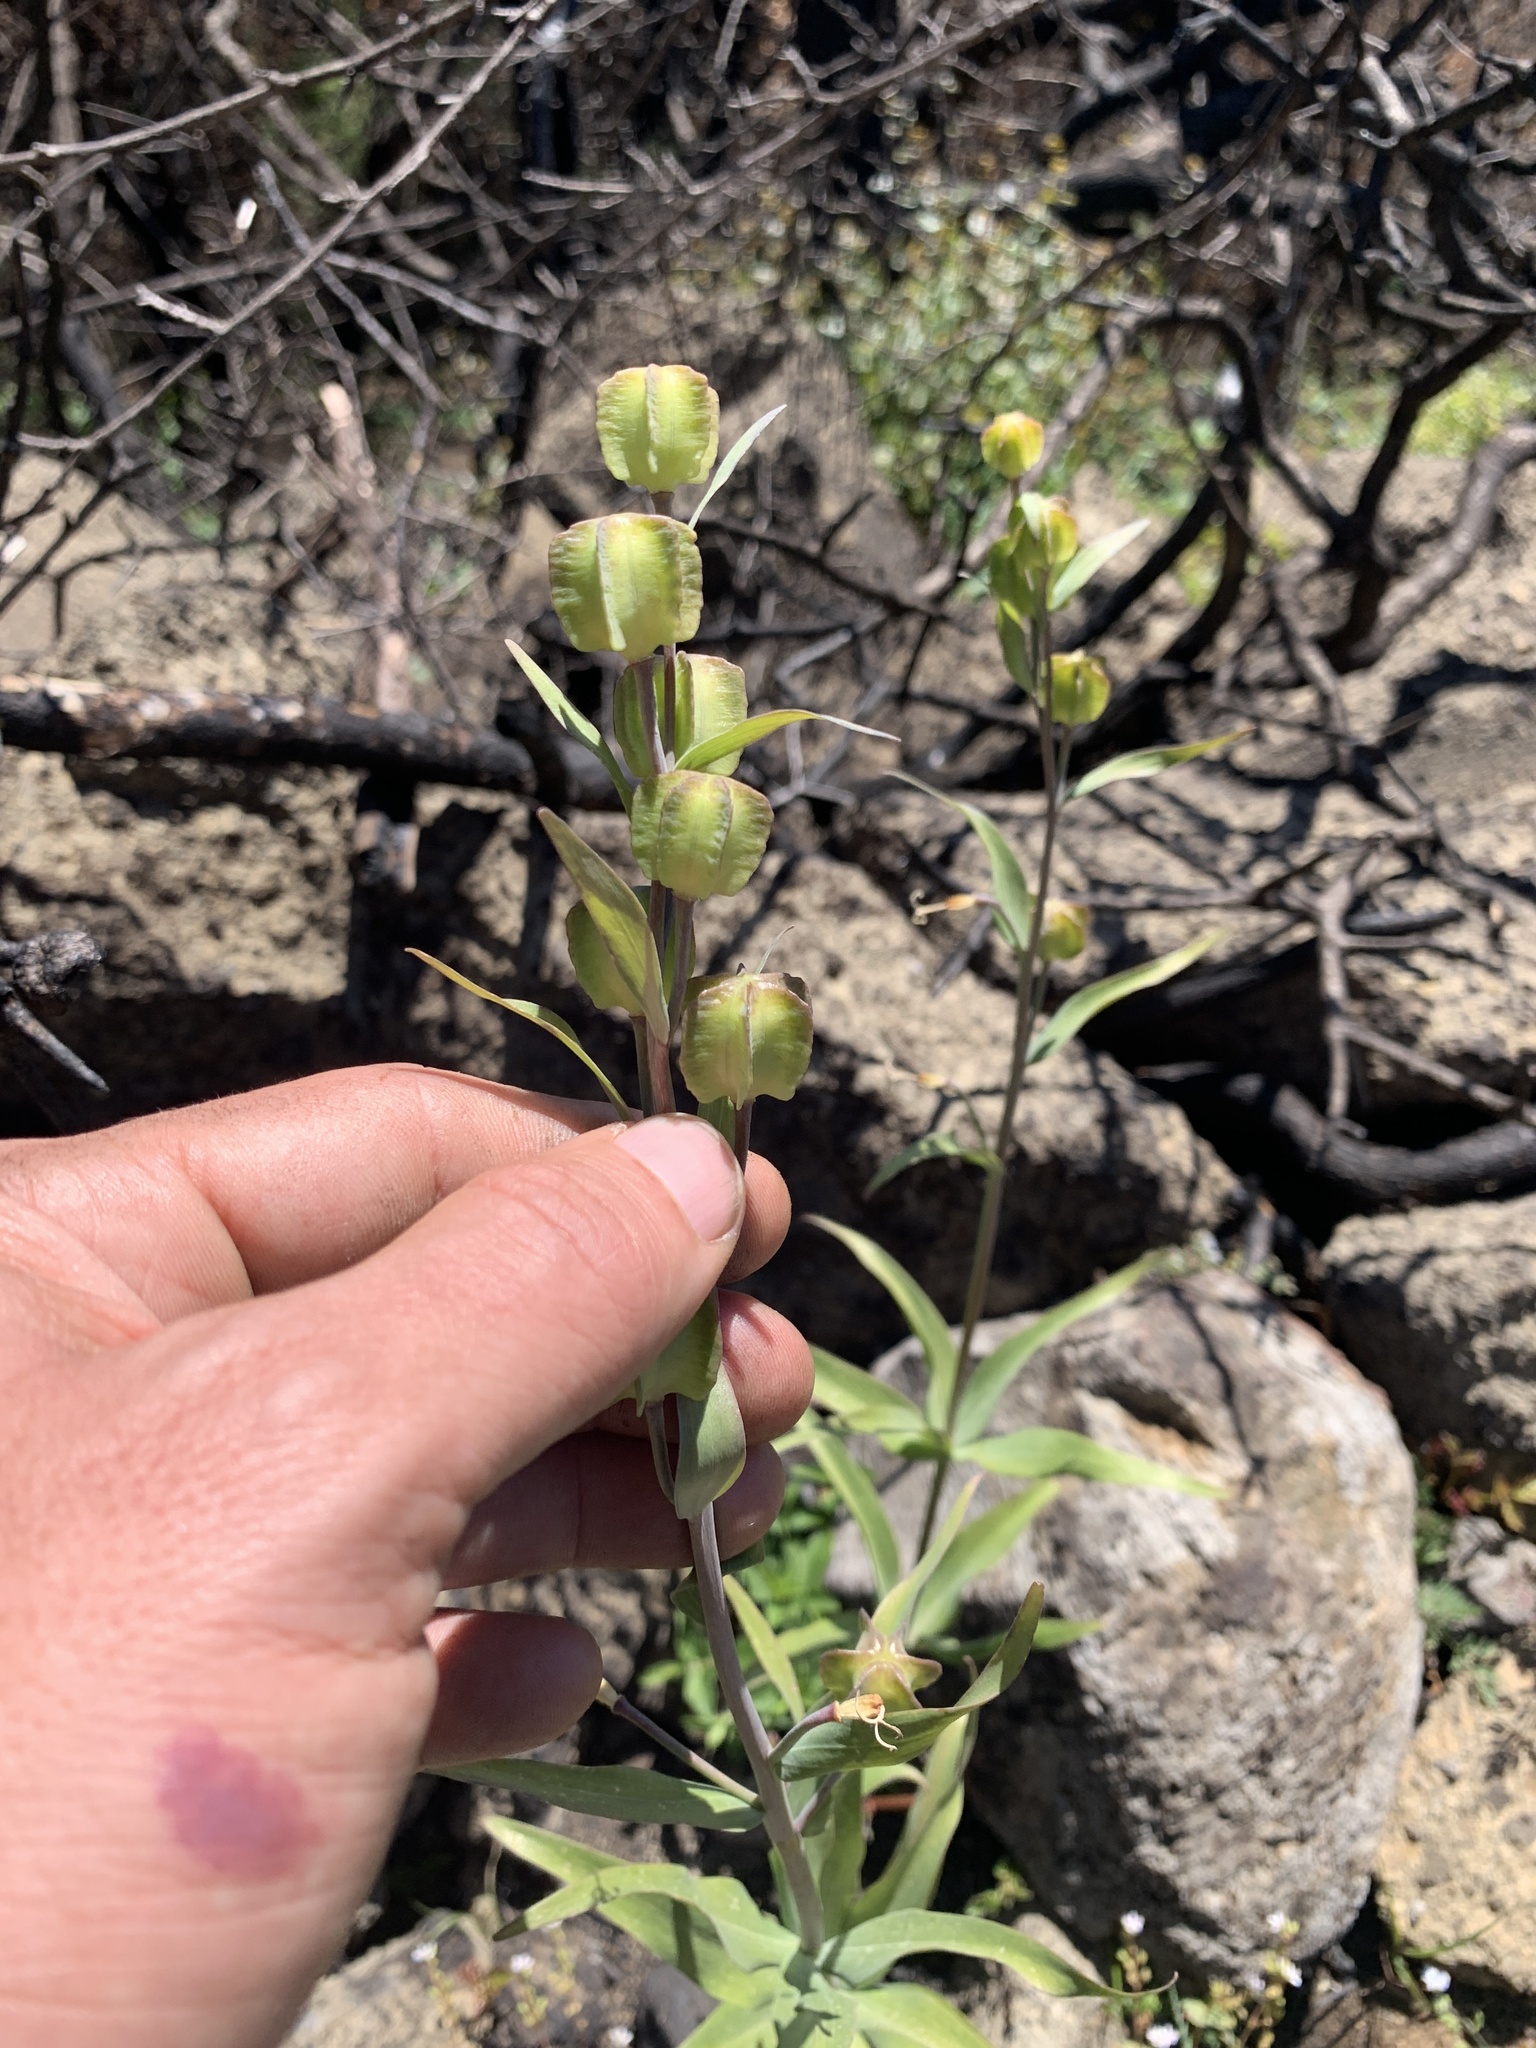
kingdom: Plantae
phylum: Tracheophyta
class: Liliopsida
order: Liliales
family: Liliaceae
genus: Fritillaria
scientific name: Fritillaria affinis
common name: Ojai fritillary
